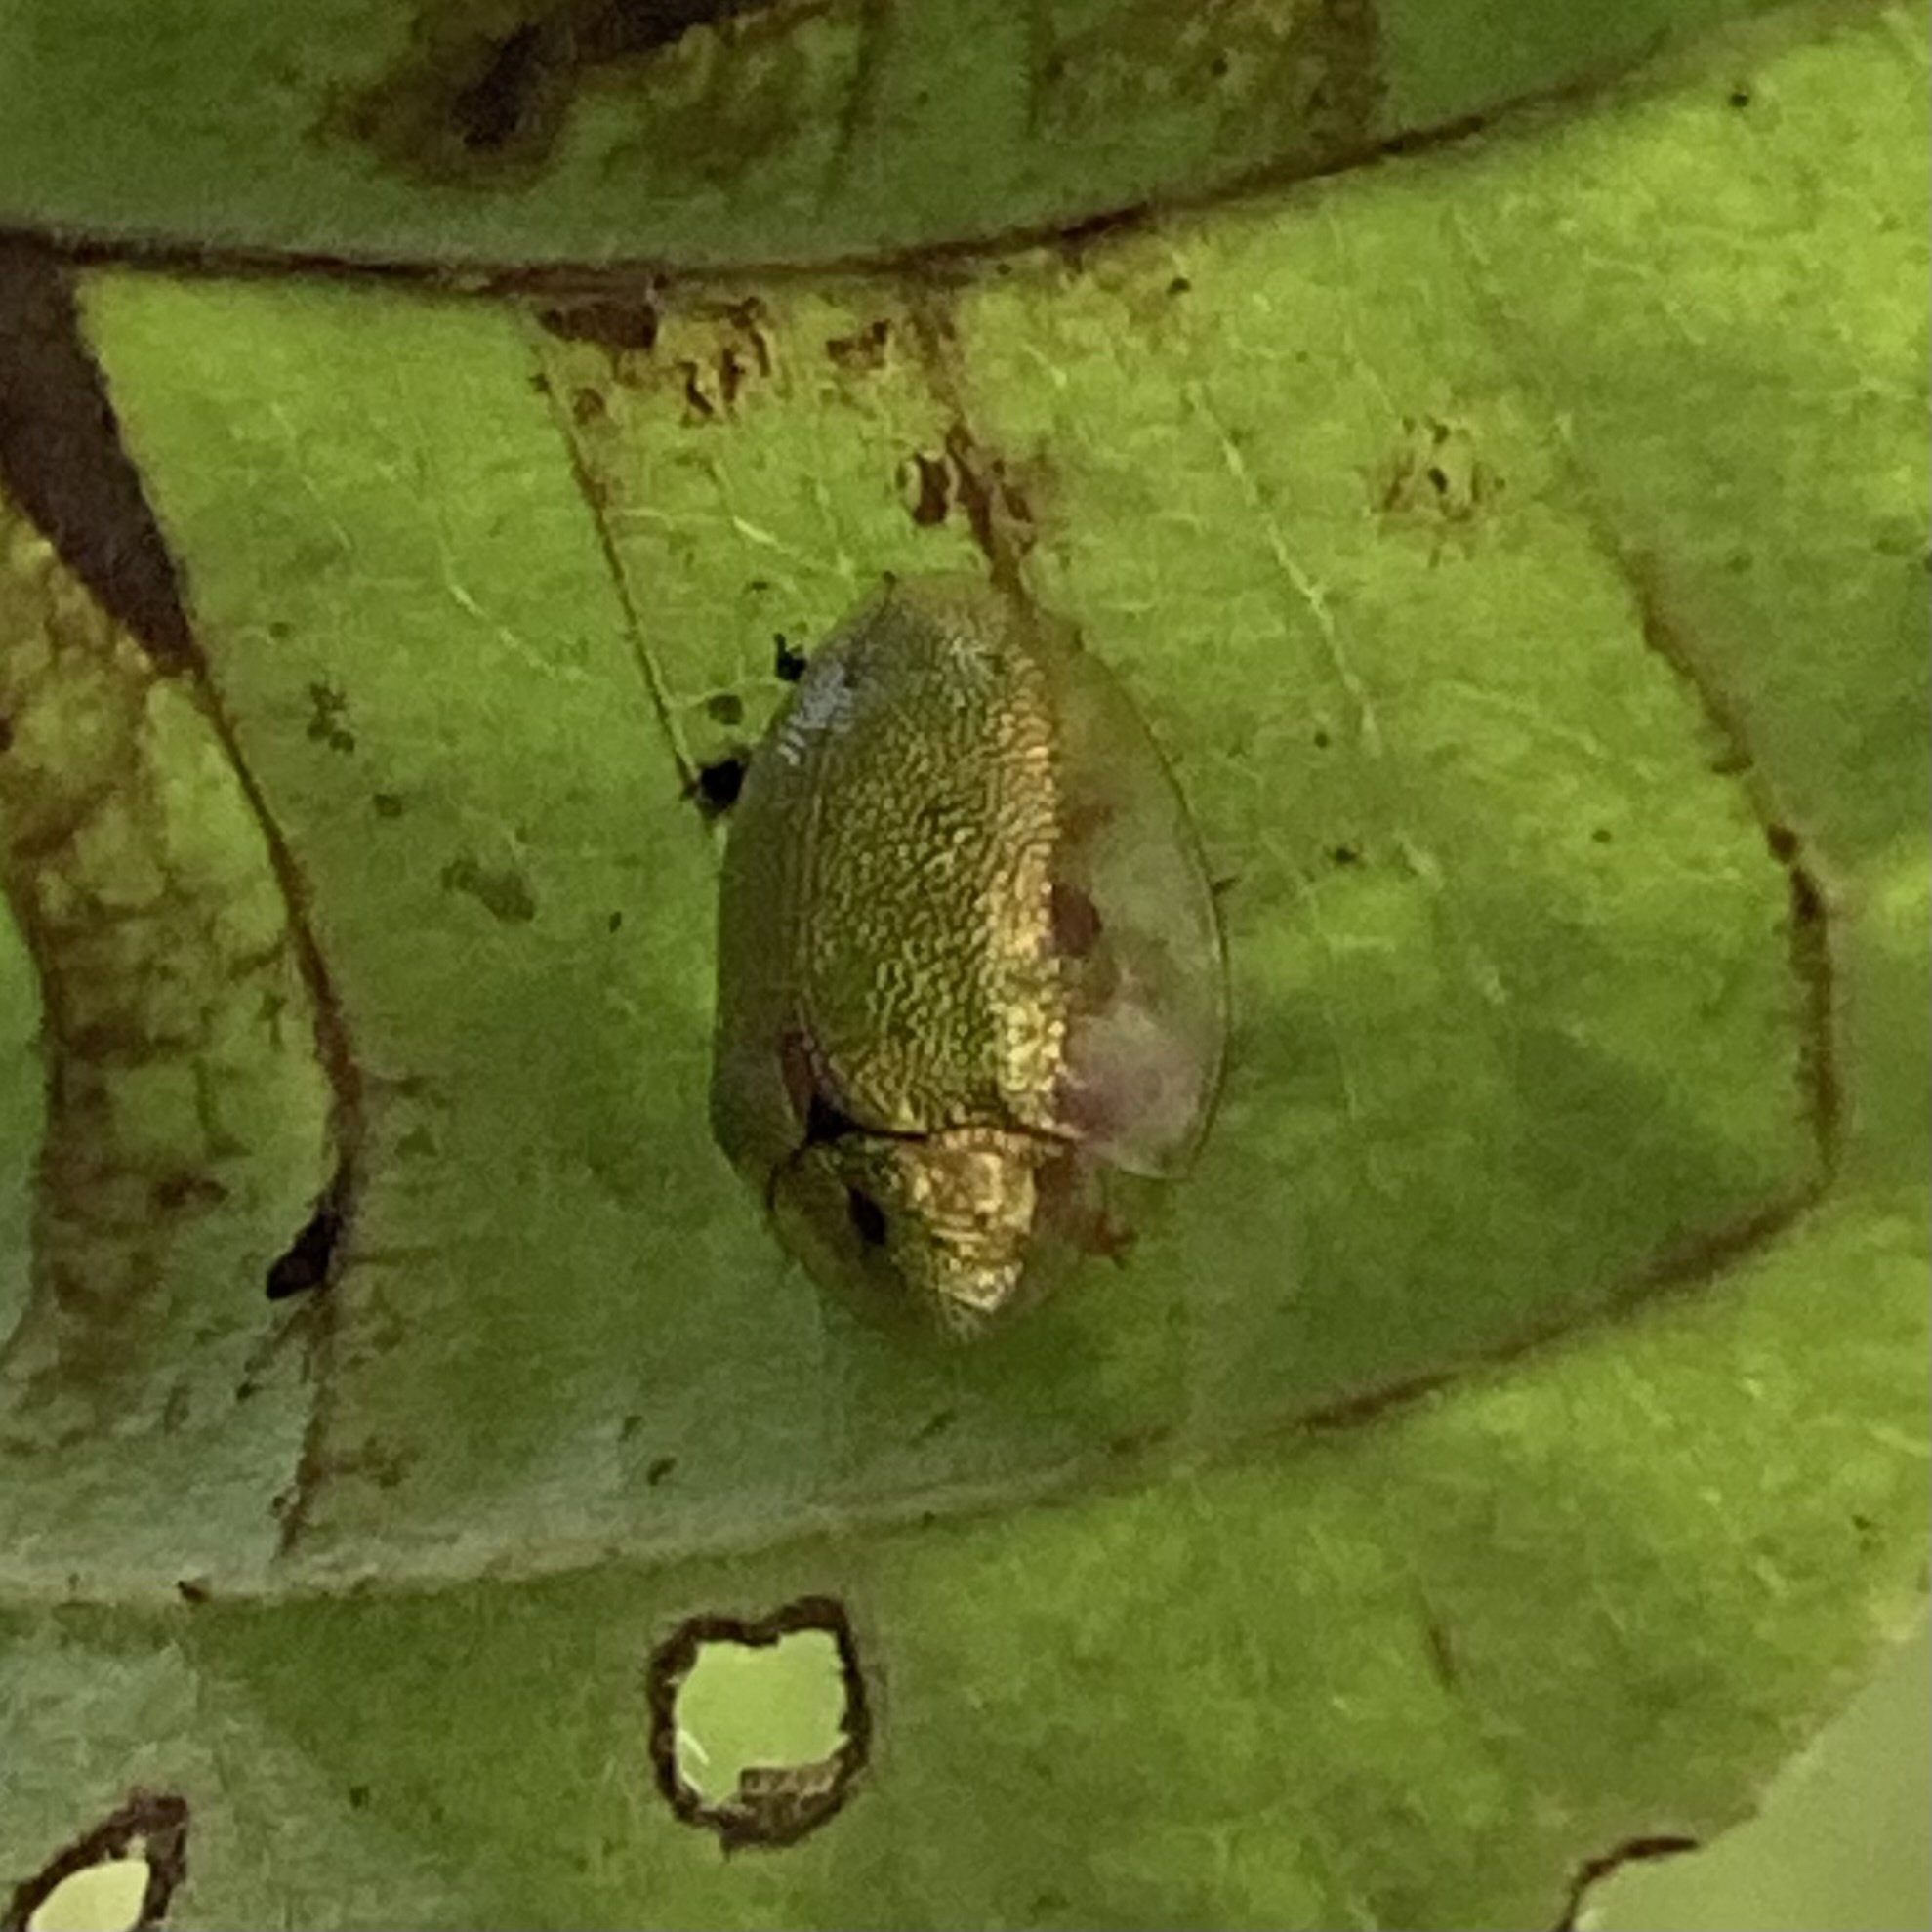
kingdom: Animalia
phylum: Arthropoda
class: Insecta
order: Coleoptera
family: Chrysomelidae
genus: Eurypepla
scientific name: Eurypepla calochroma
